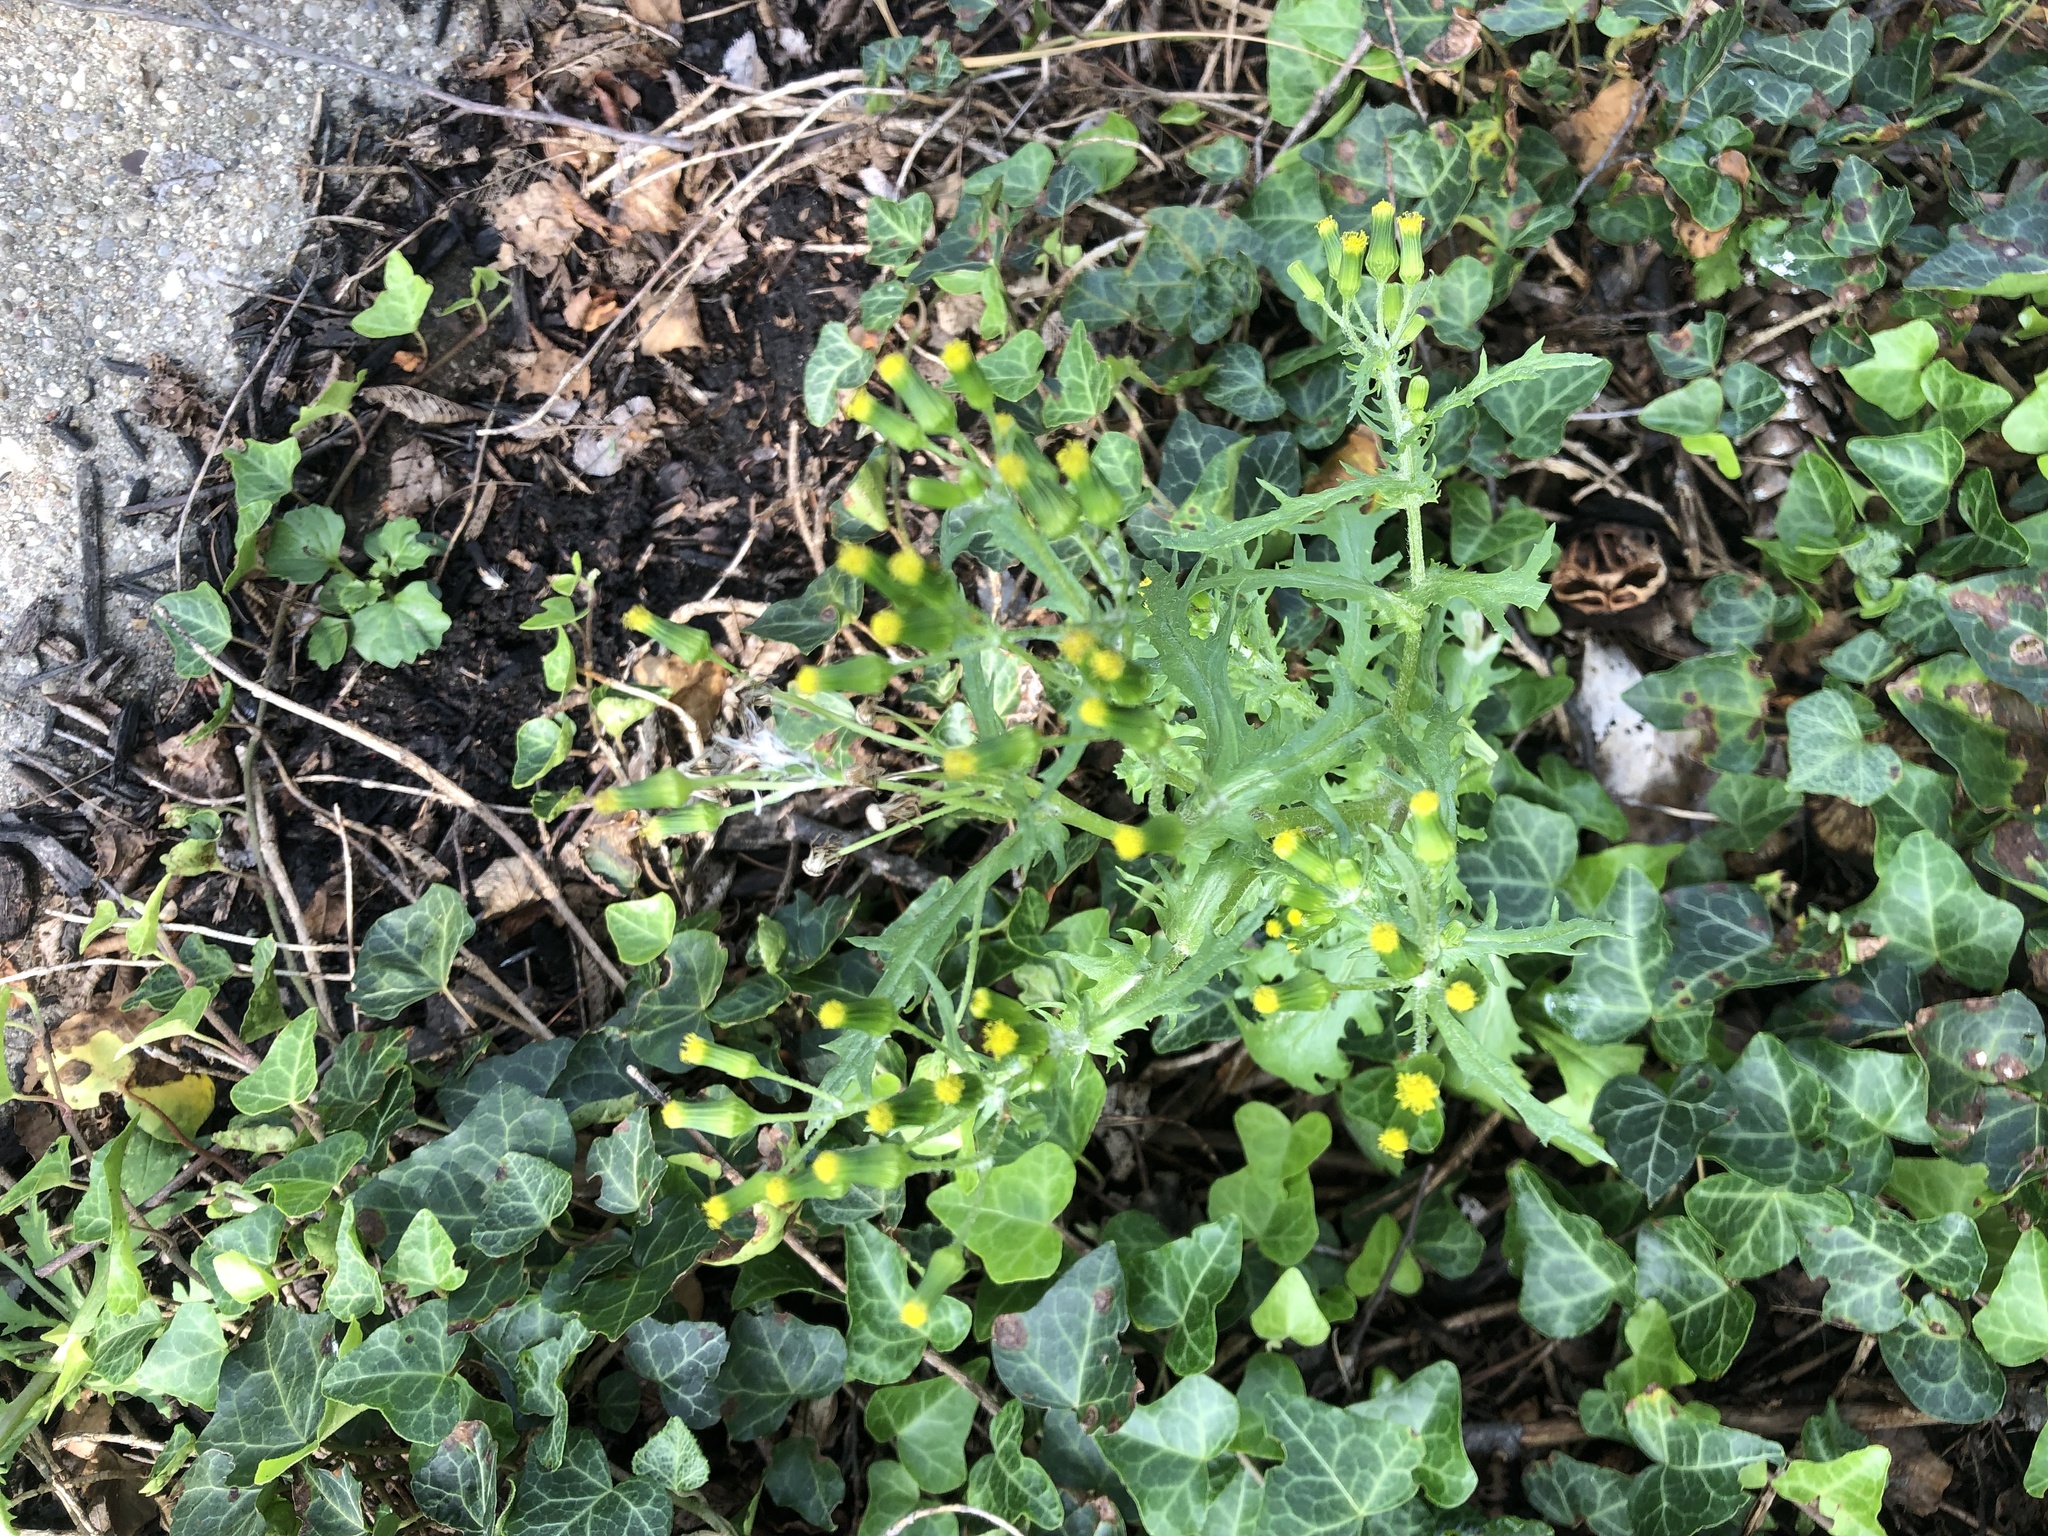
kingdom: Plantae
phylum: Tracheophyta
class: Magnoliopsida
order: Asterales
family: Asteraceae
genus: Senecio
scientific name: Senecio vulgaris
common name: Old-man-in-the-spring
